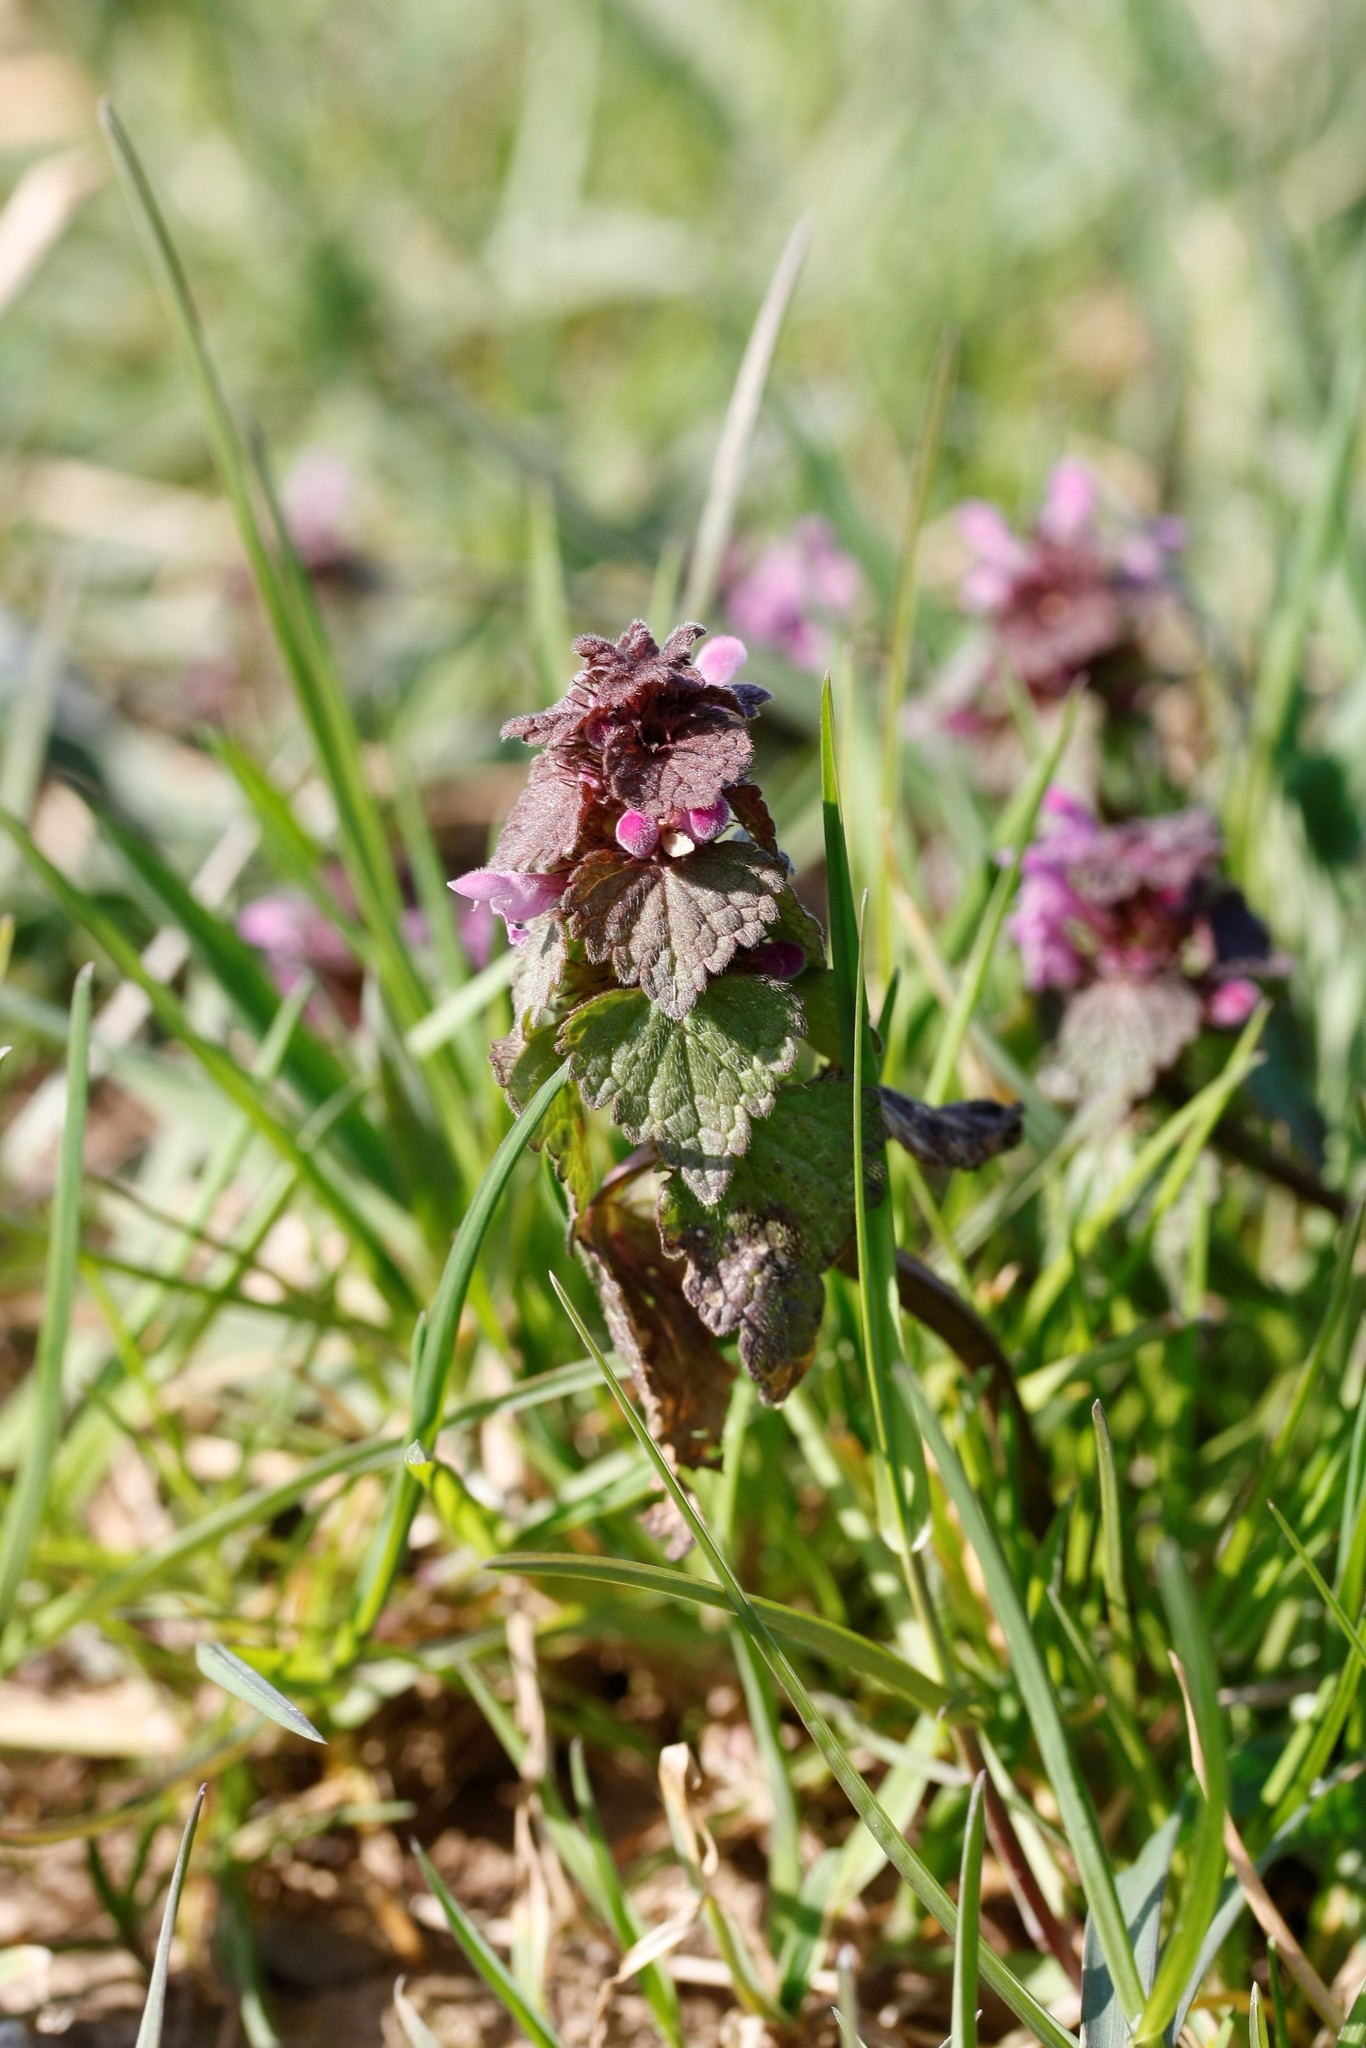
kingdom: Plantae
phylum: Tracheophyta
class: Magnoliopsida
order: Lamiales
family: Lamiaceae
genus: Lamium
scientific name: Lamium purpureum
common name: Red dead-nettle
